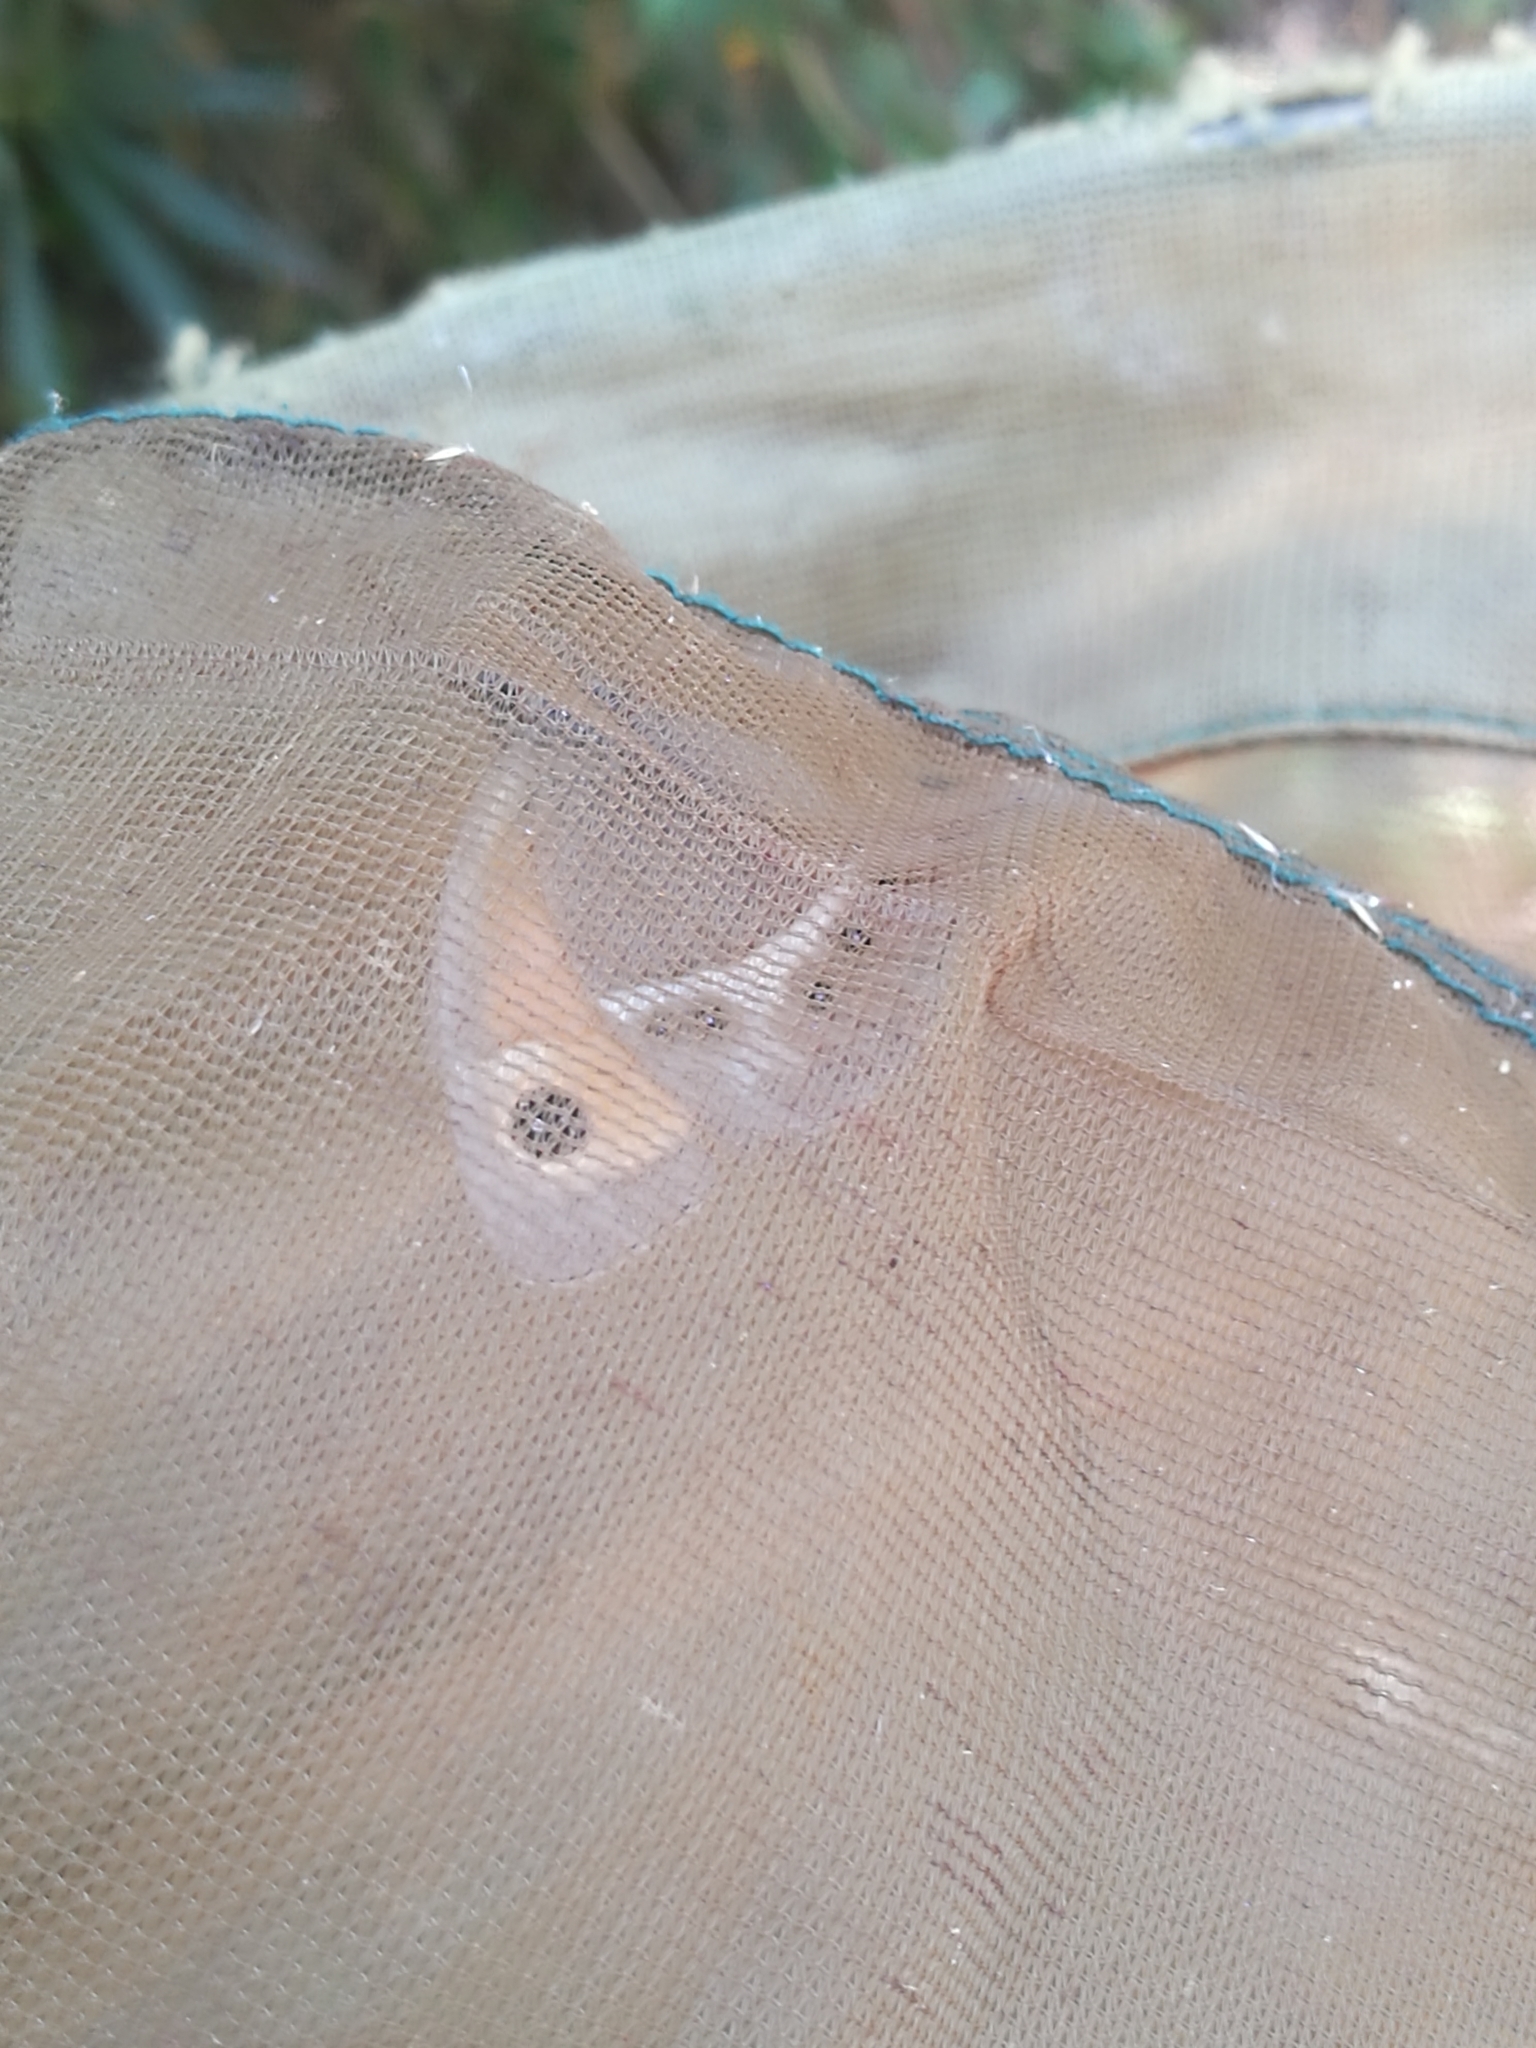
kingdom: Animalia
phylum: Arthropoda
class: Insecta
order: Lepidoptera
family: Nymphalidae
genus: Pyronia
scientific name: Pyronia bathseba
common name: Spanish gatekeeper
